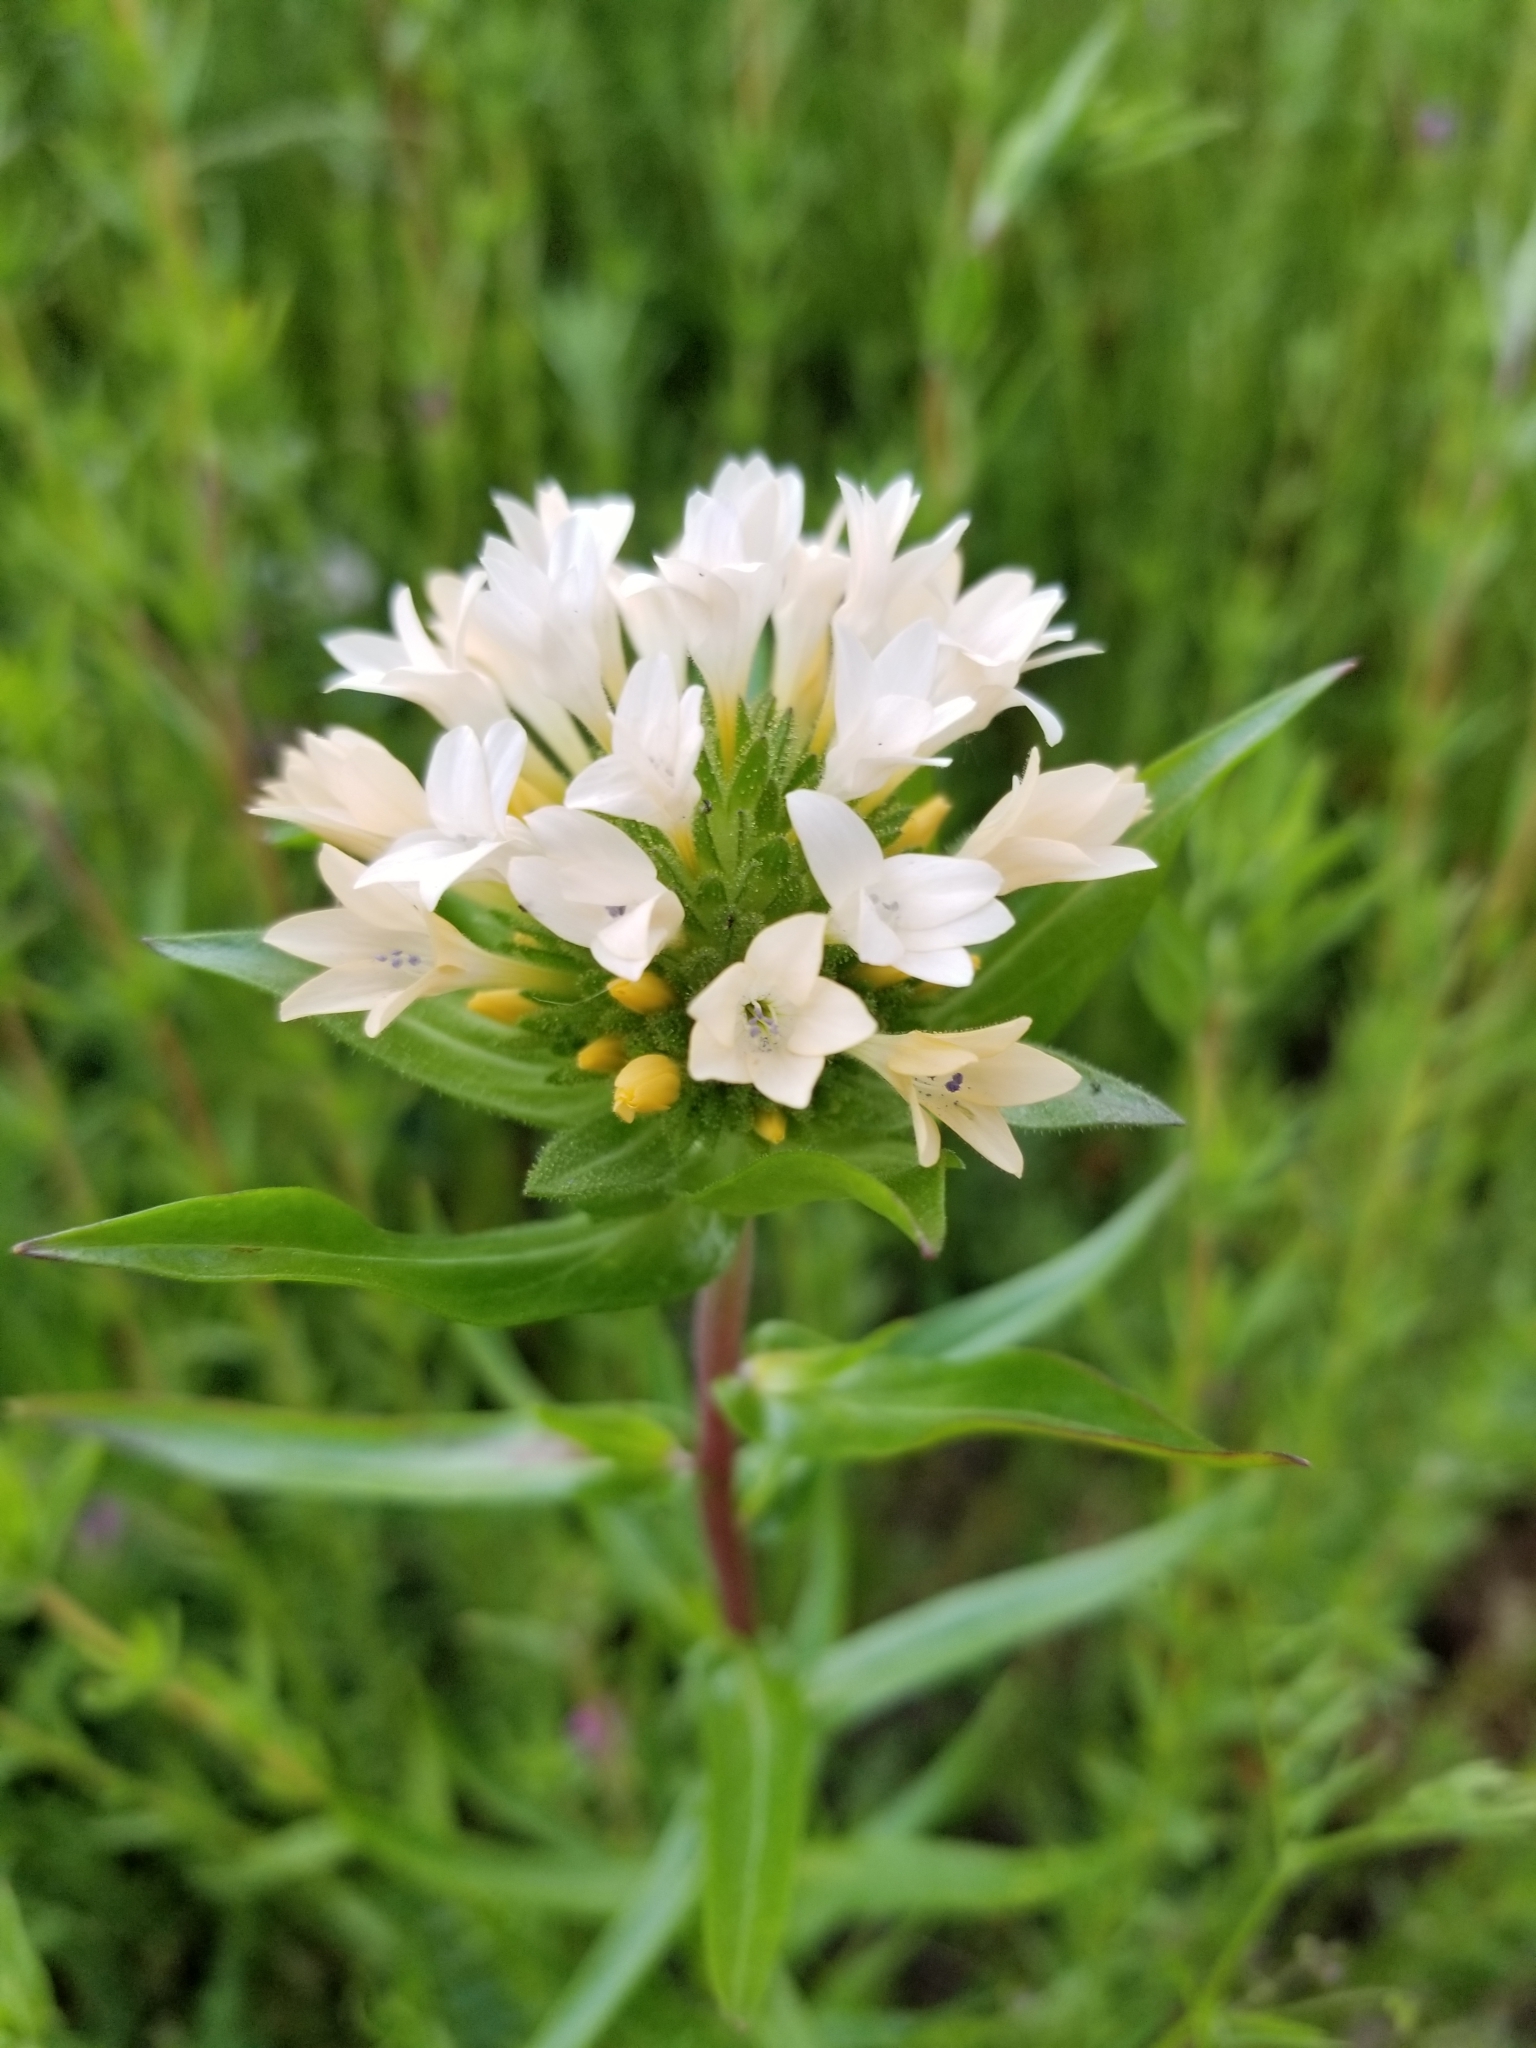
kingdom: Plantae
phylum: Tracheophyta
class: Magnoliopsida
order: Ericales
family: Polemoniaceae
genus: Collomia
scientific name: Collomia grandiflora
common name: California strawflower
